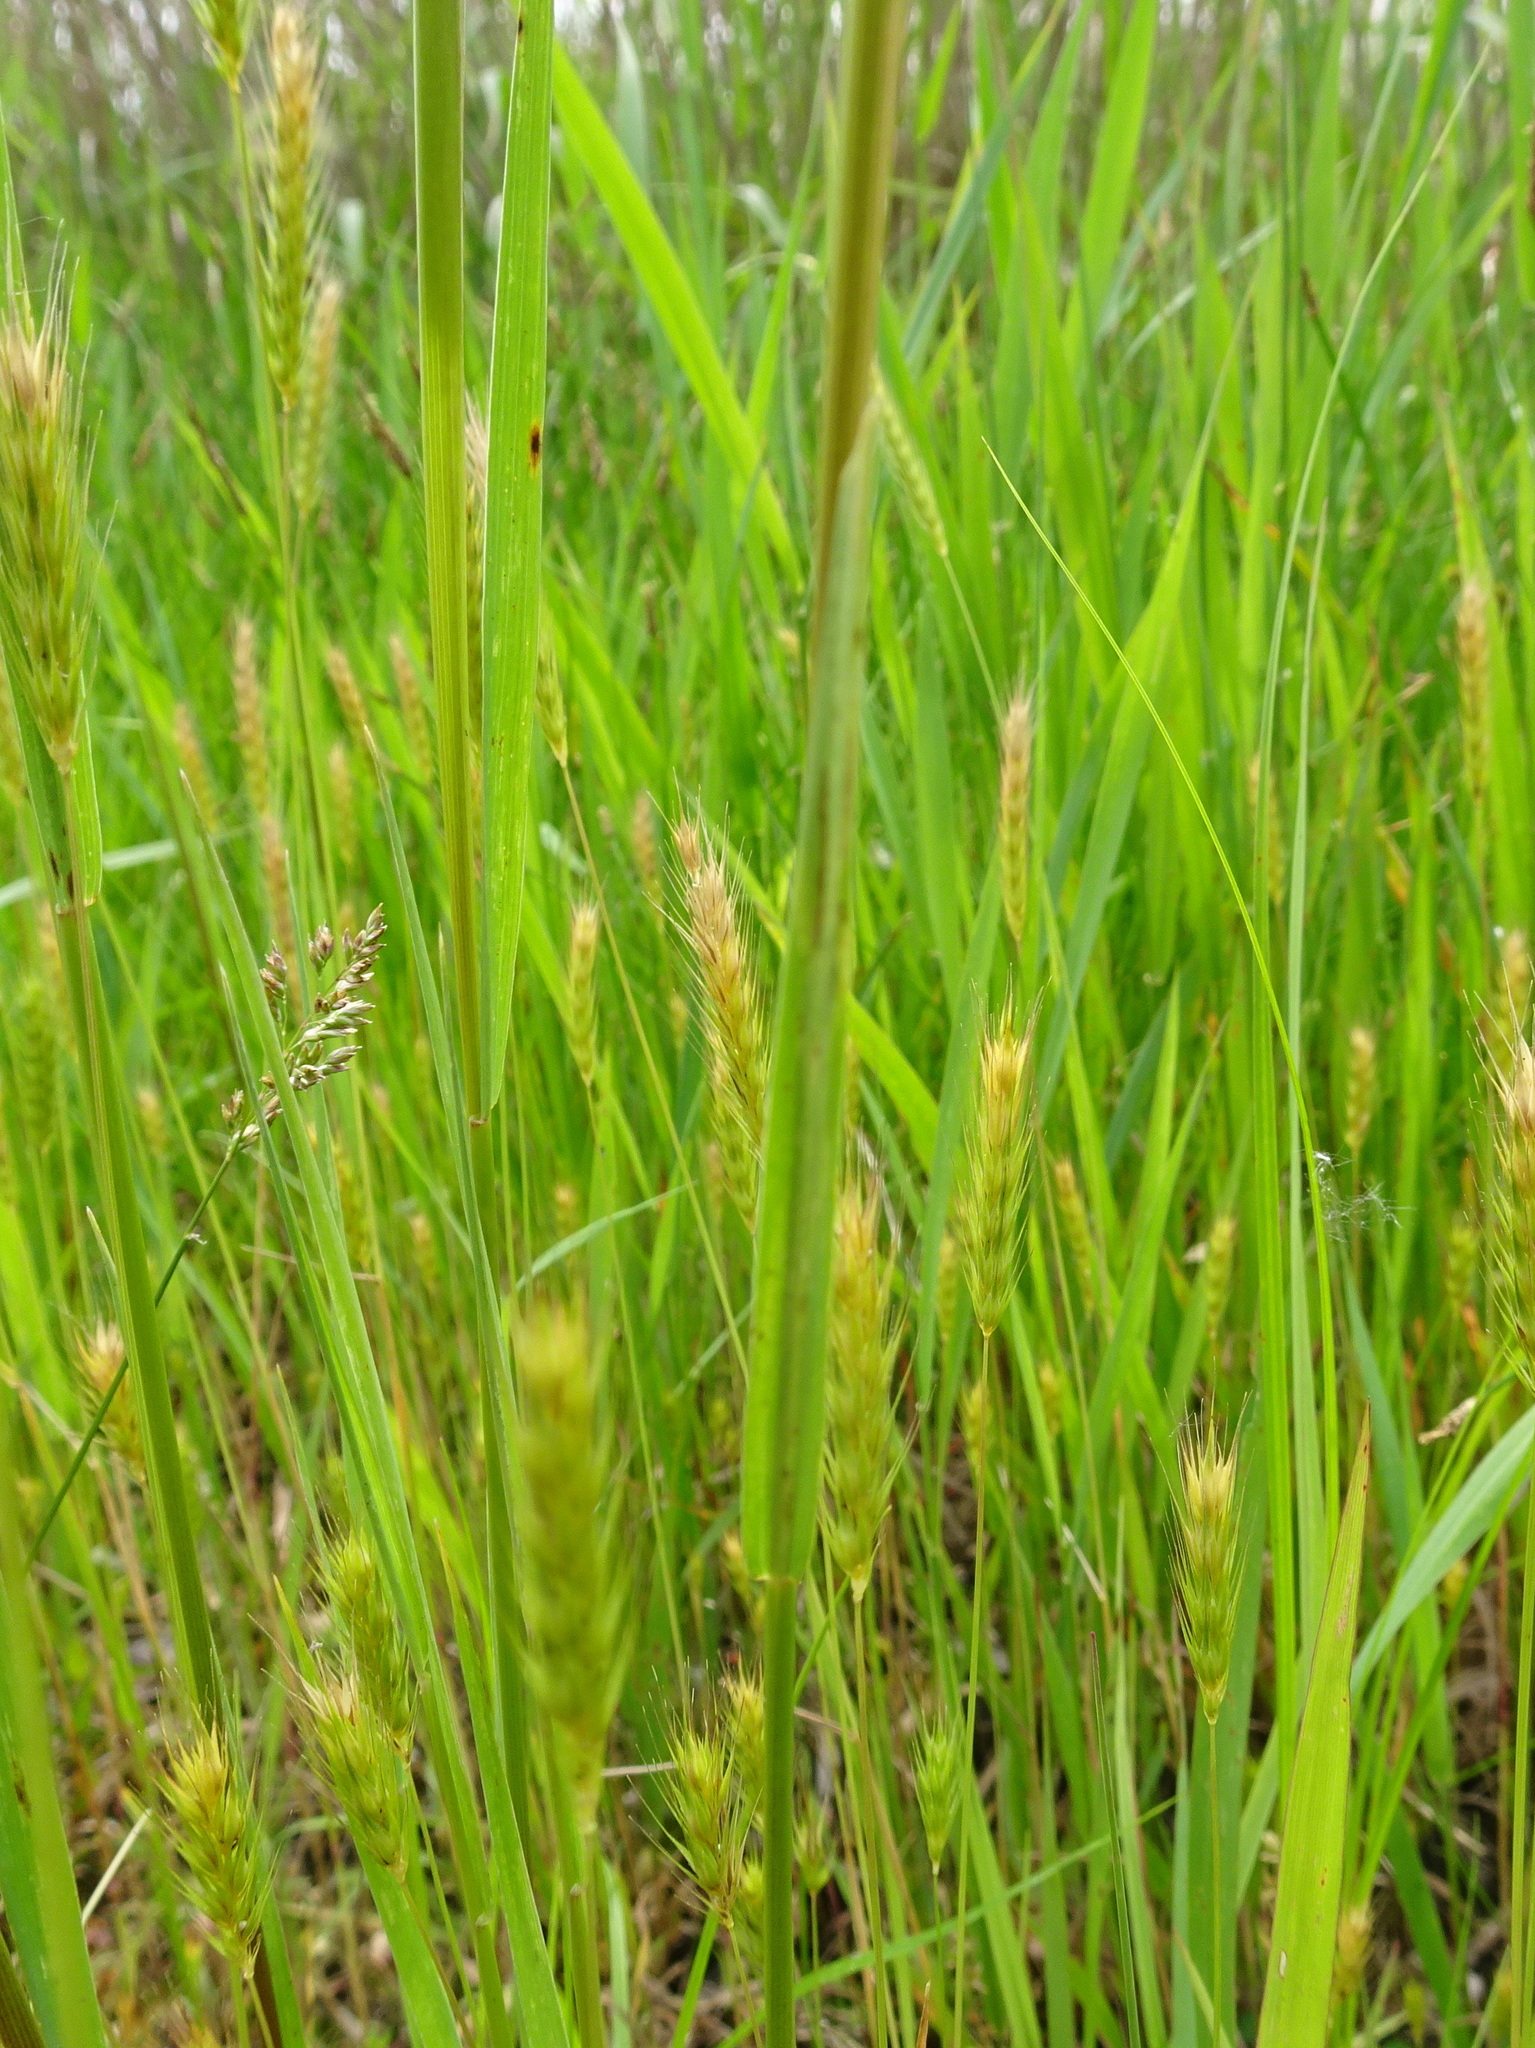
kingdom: Plantae
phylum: Tracheophyta
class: Liliopsida
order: Poales
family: Poaceae
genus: Hordeum
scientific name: Hordeum jubatum
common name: Foxtail barley
